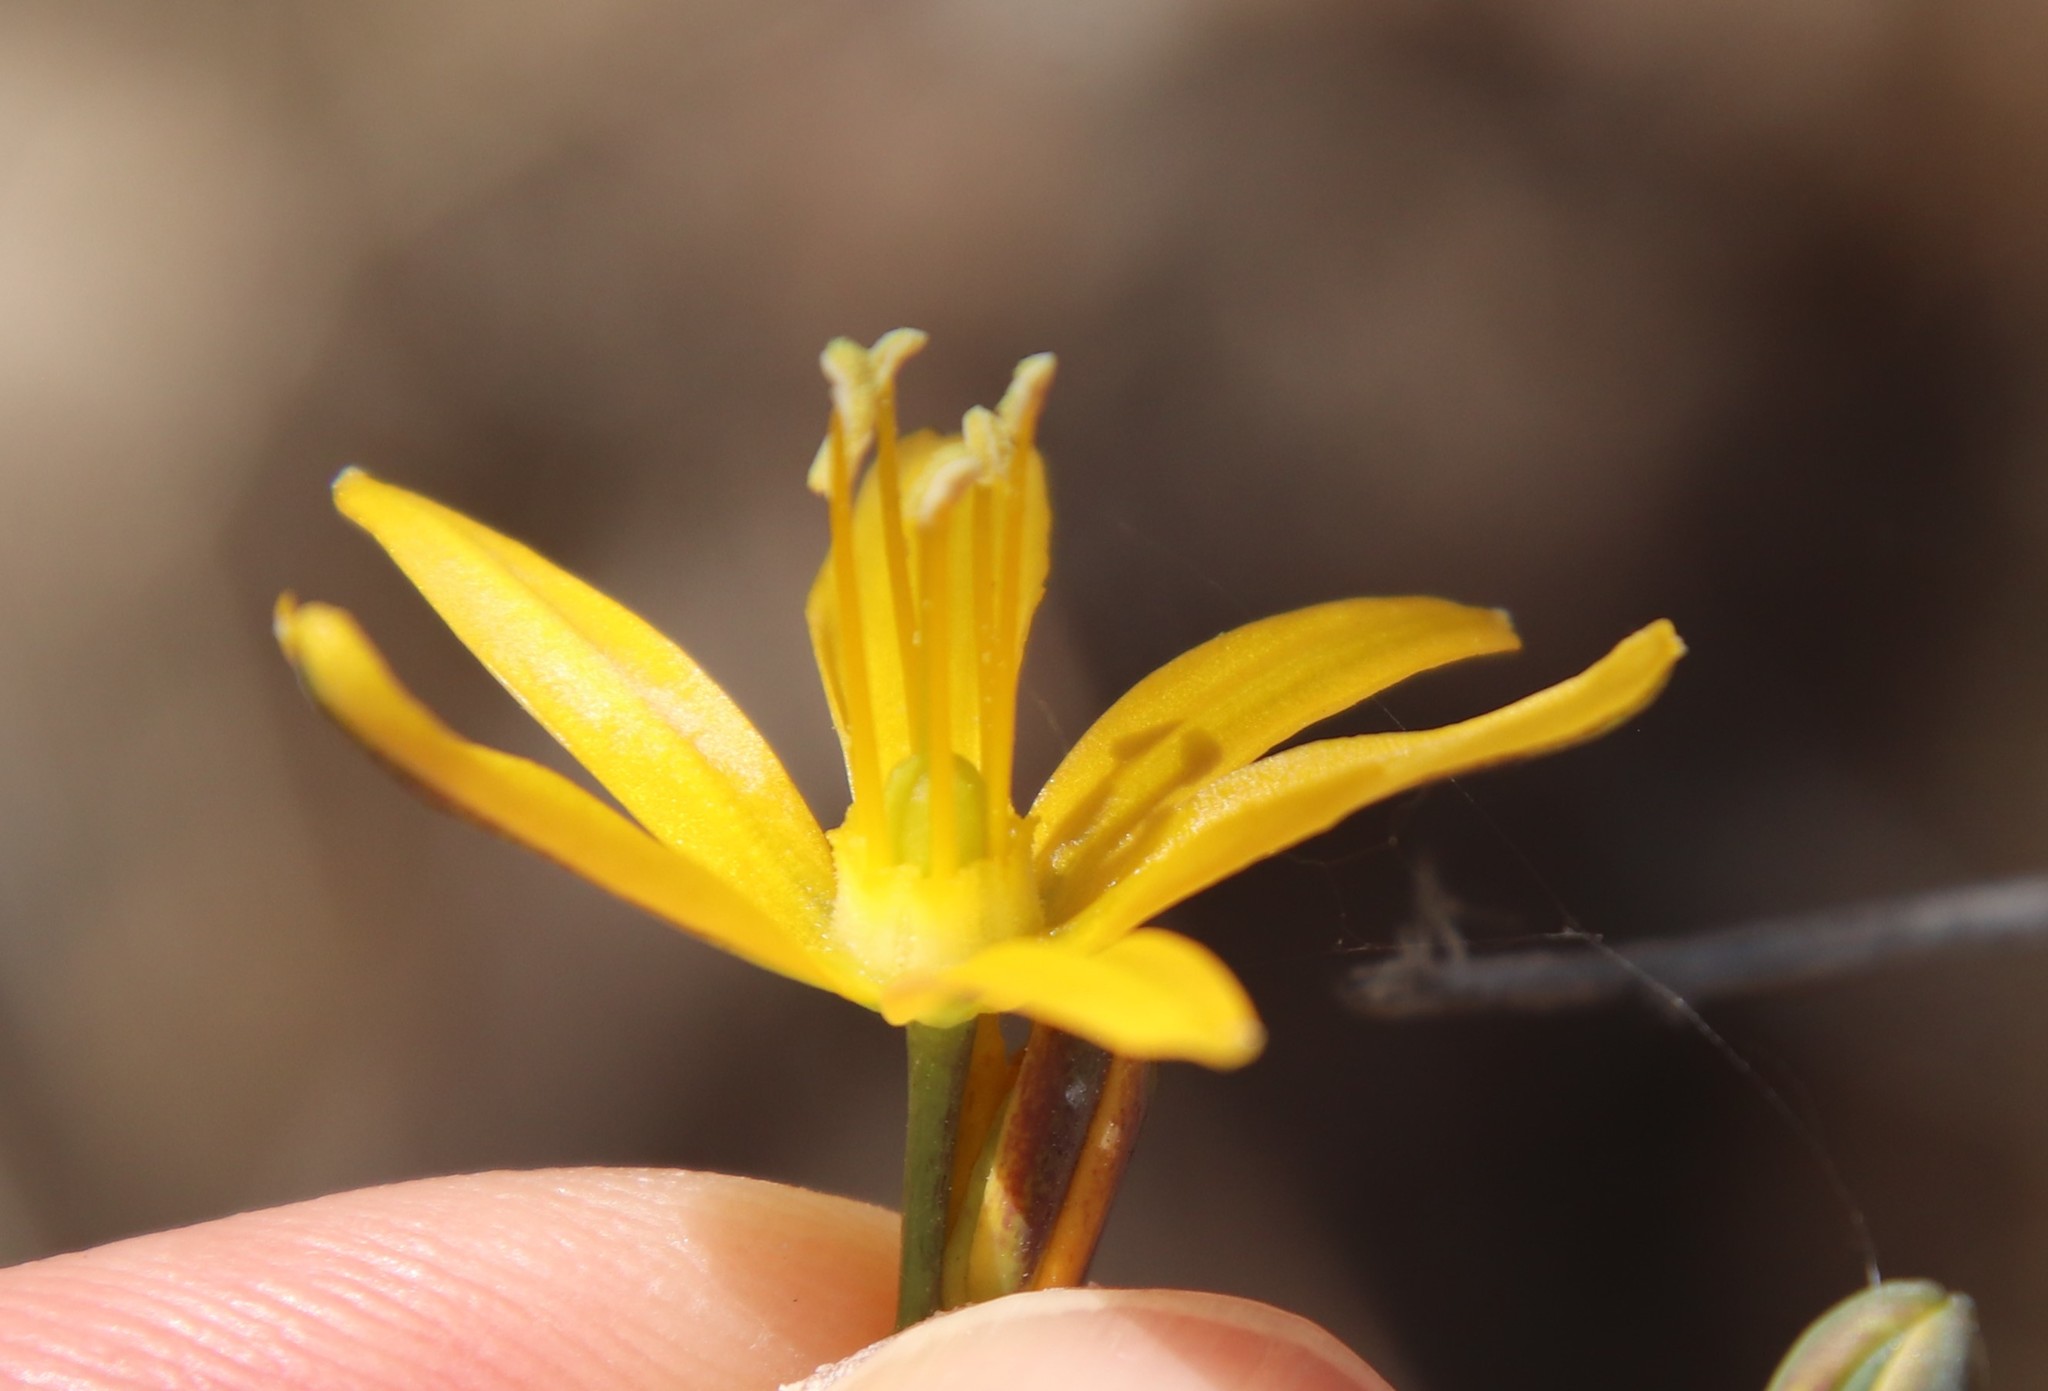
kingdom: Plantae
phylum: Tracheophyta
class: Liliopsida
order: Asparagales
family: Asparagaceae
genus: Bloomeria
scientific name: Bloomeria crocea
